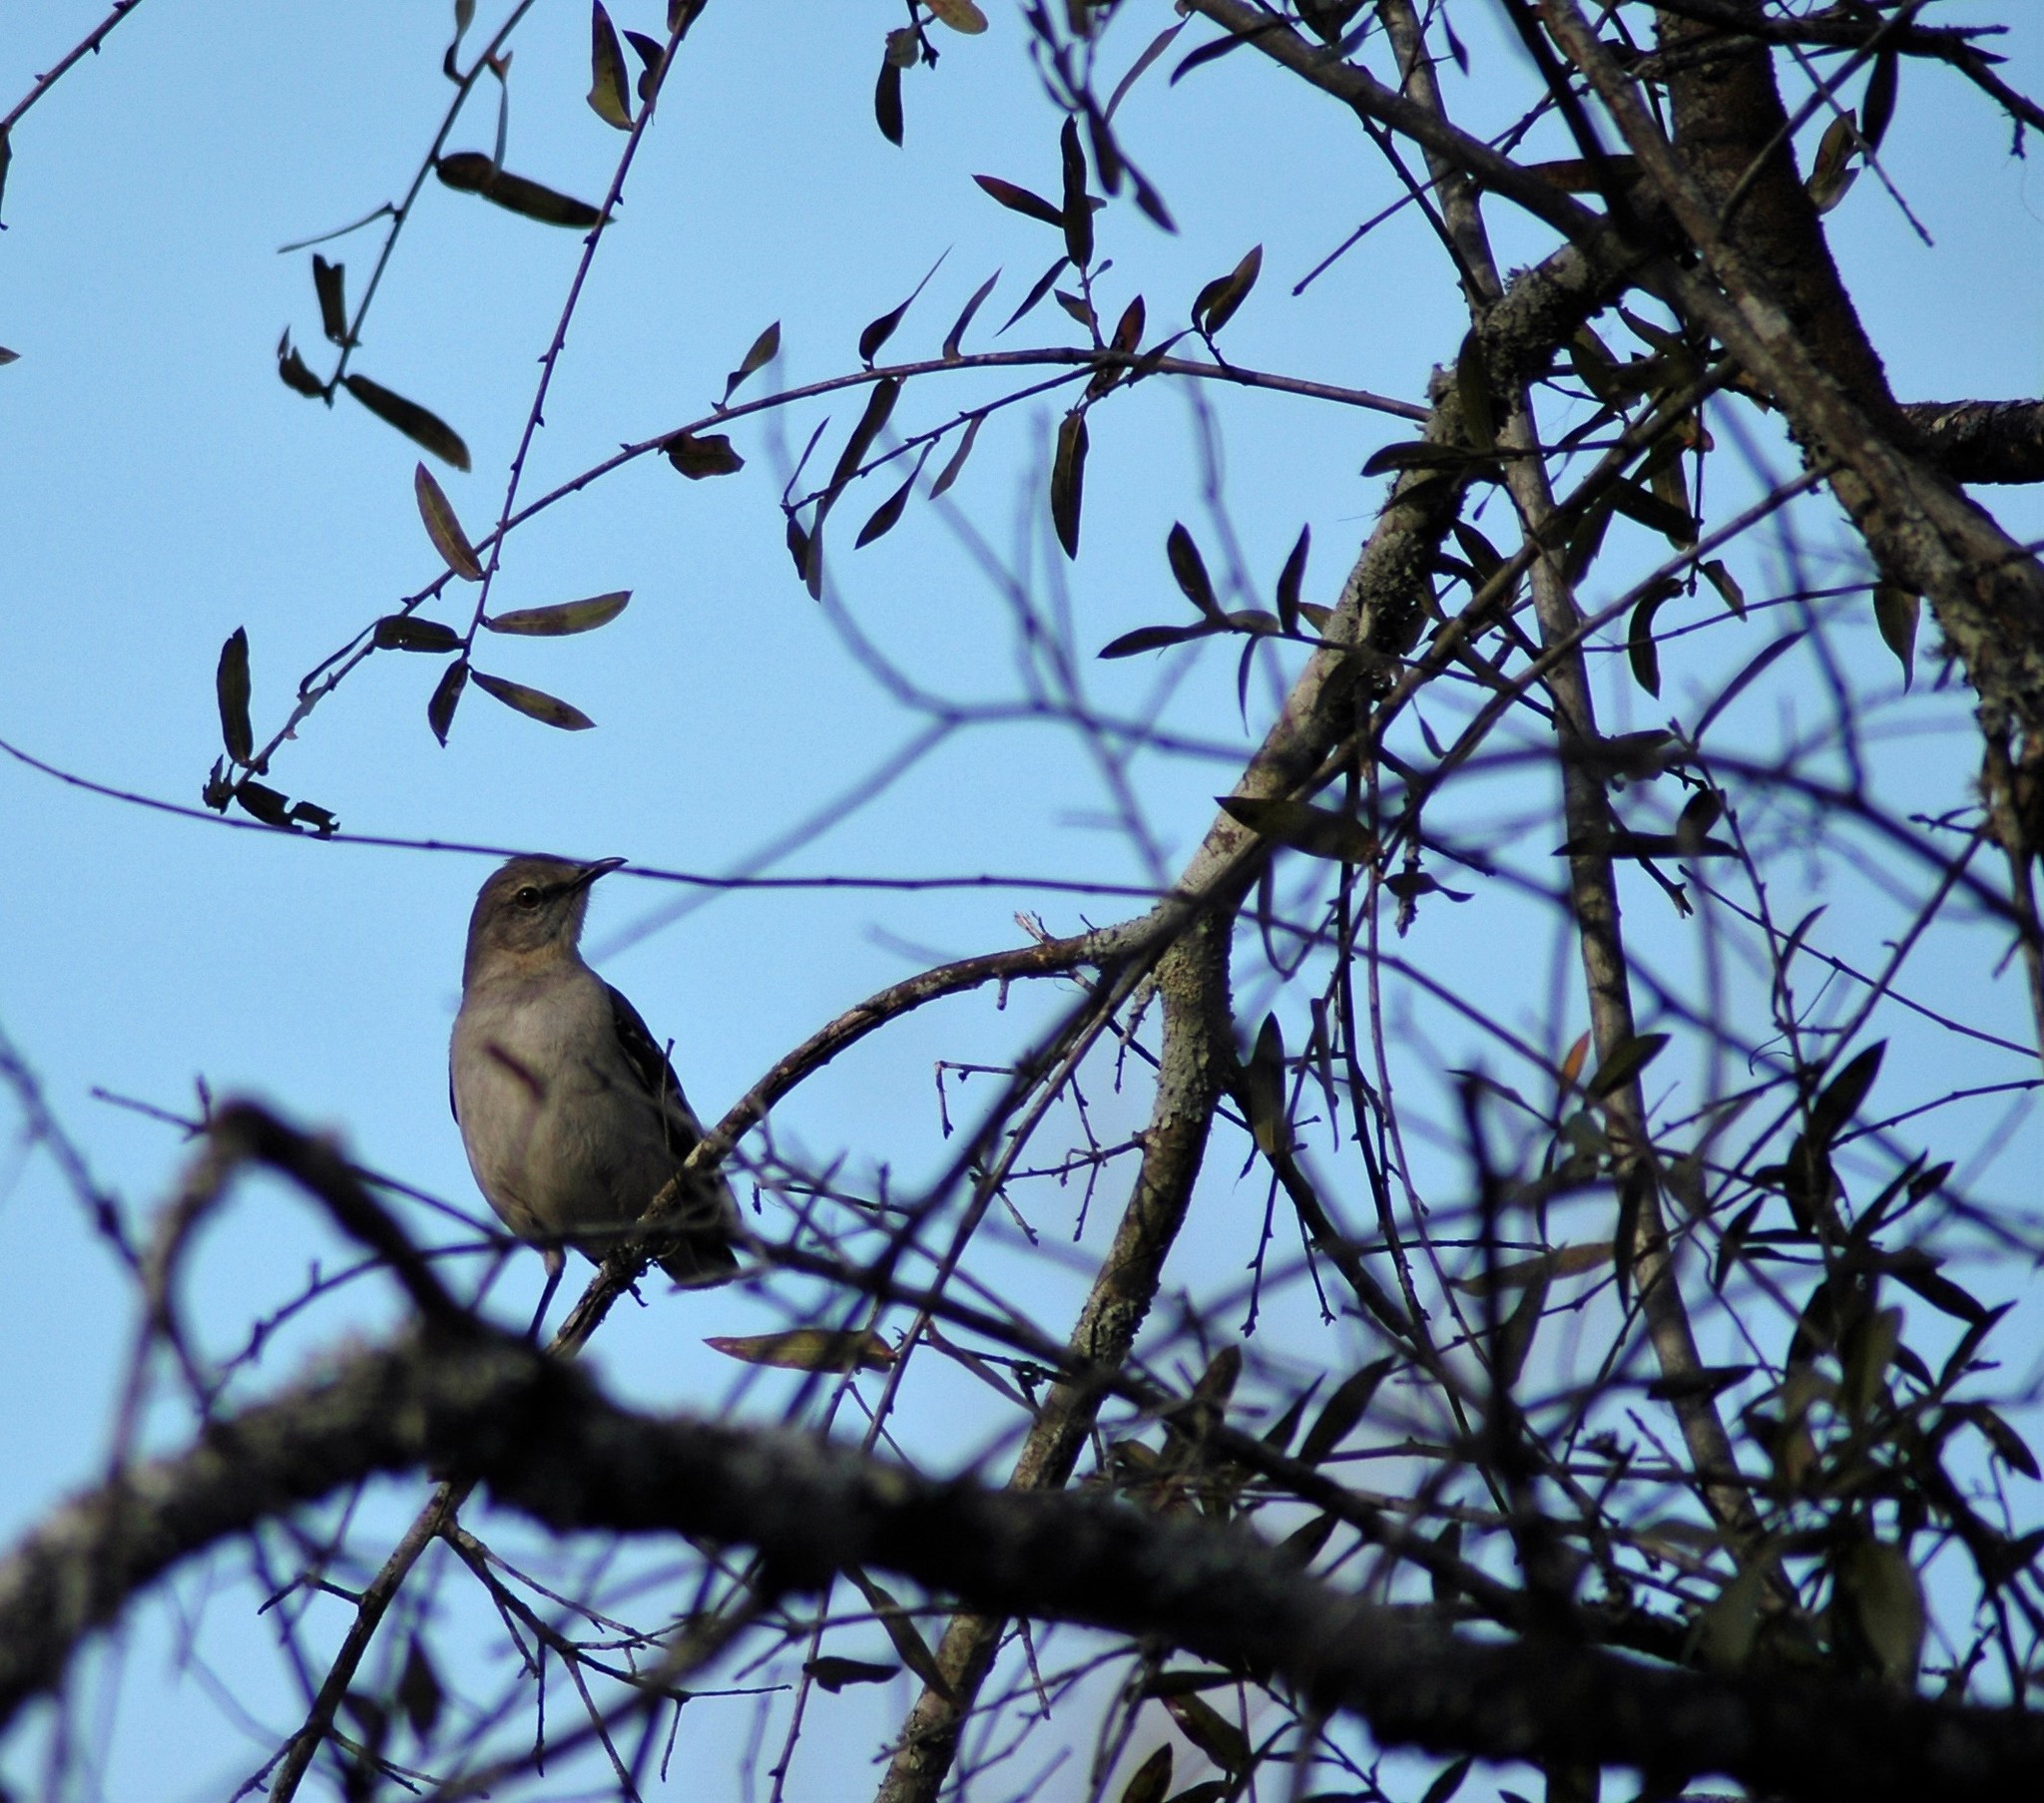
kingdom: Animalia
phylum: Chordata
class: Aves
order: Passeriformes
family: Mimidae
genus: Mimus
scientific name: Mimus polyglottos
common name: Northern mockingbird
